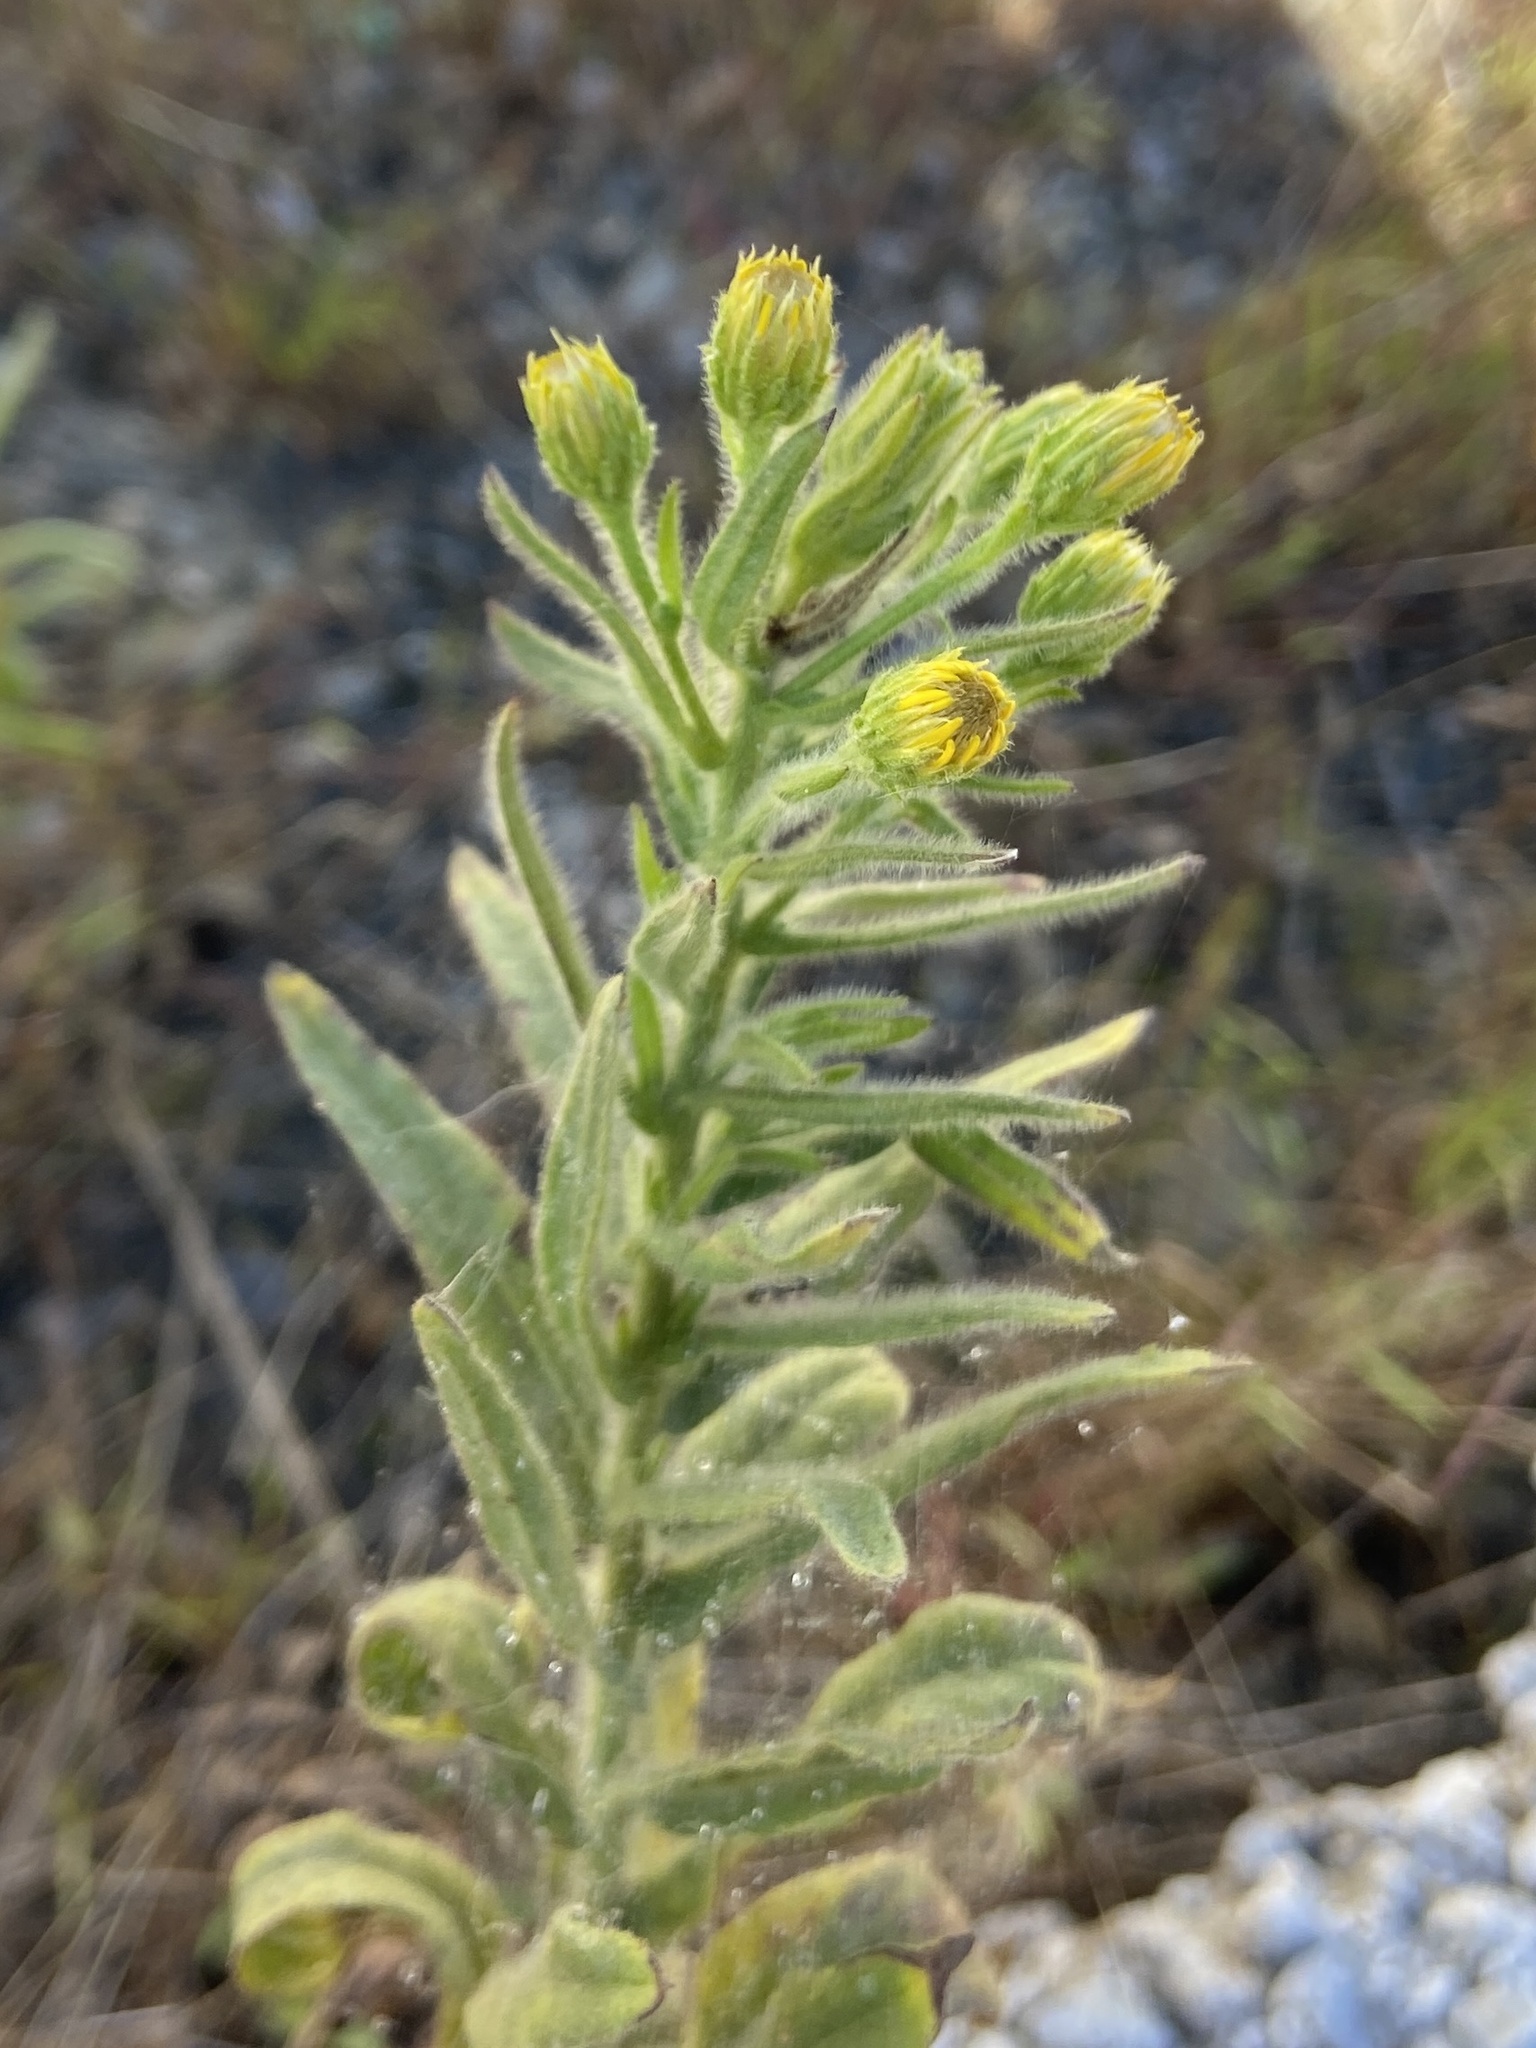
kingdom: Plantae
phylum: Tracheophyta
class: Magnoliopsida
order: Asterales
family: Asteraceae
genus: Dittrichia
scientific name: Dittrichia viscosa
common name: Woody fleabane
